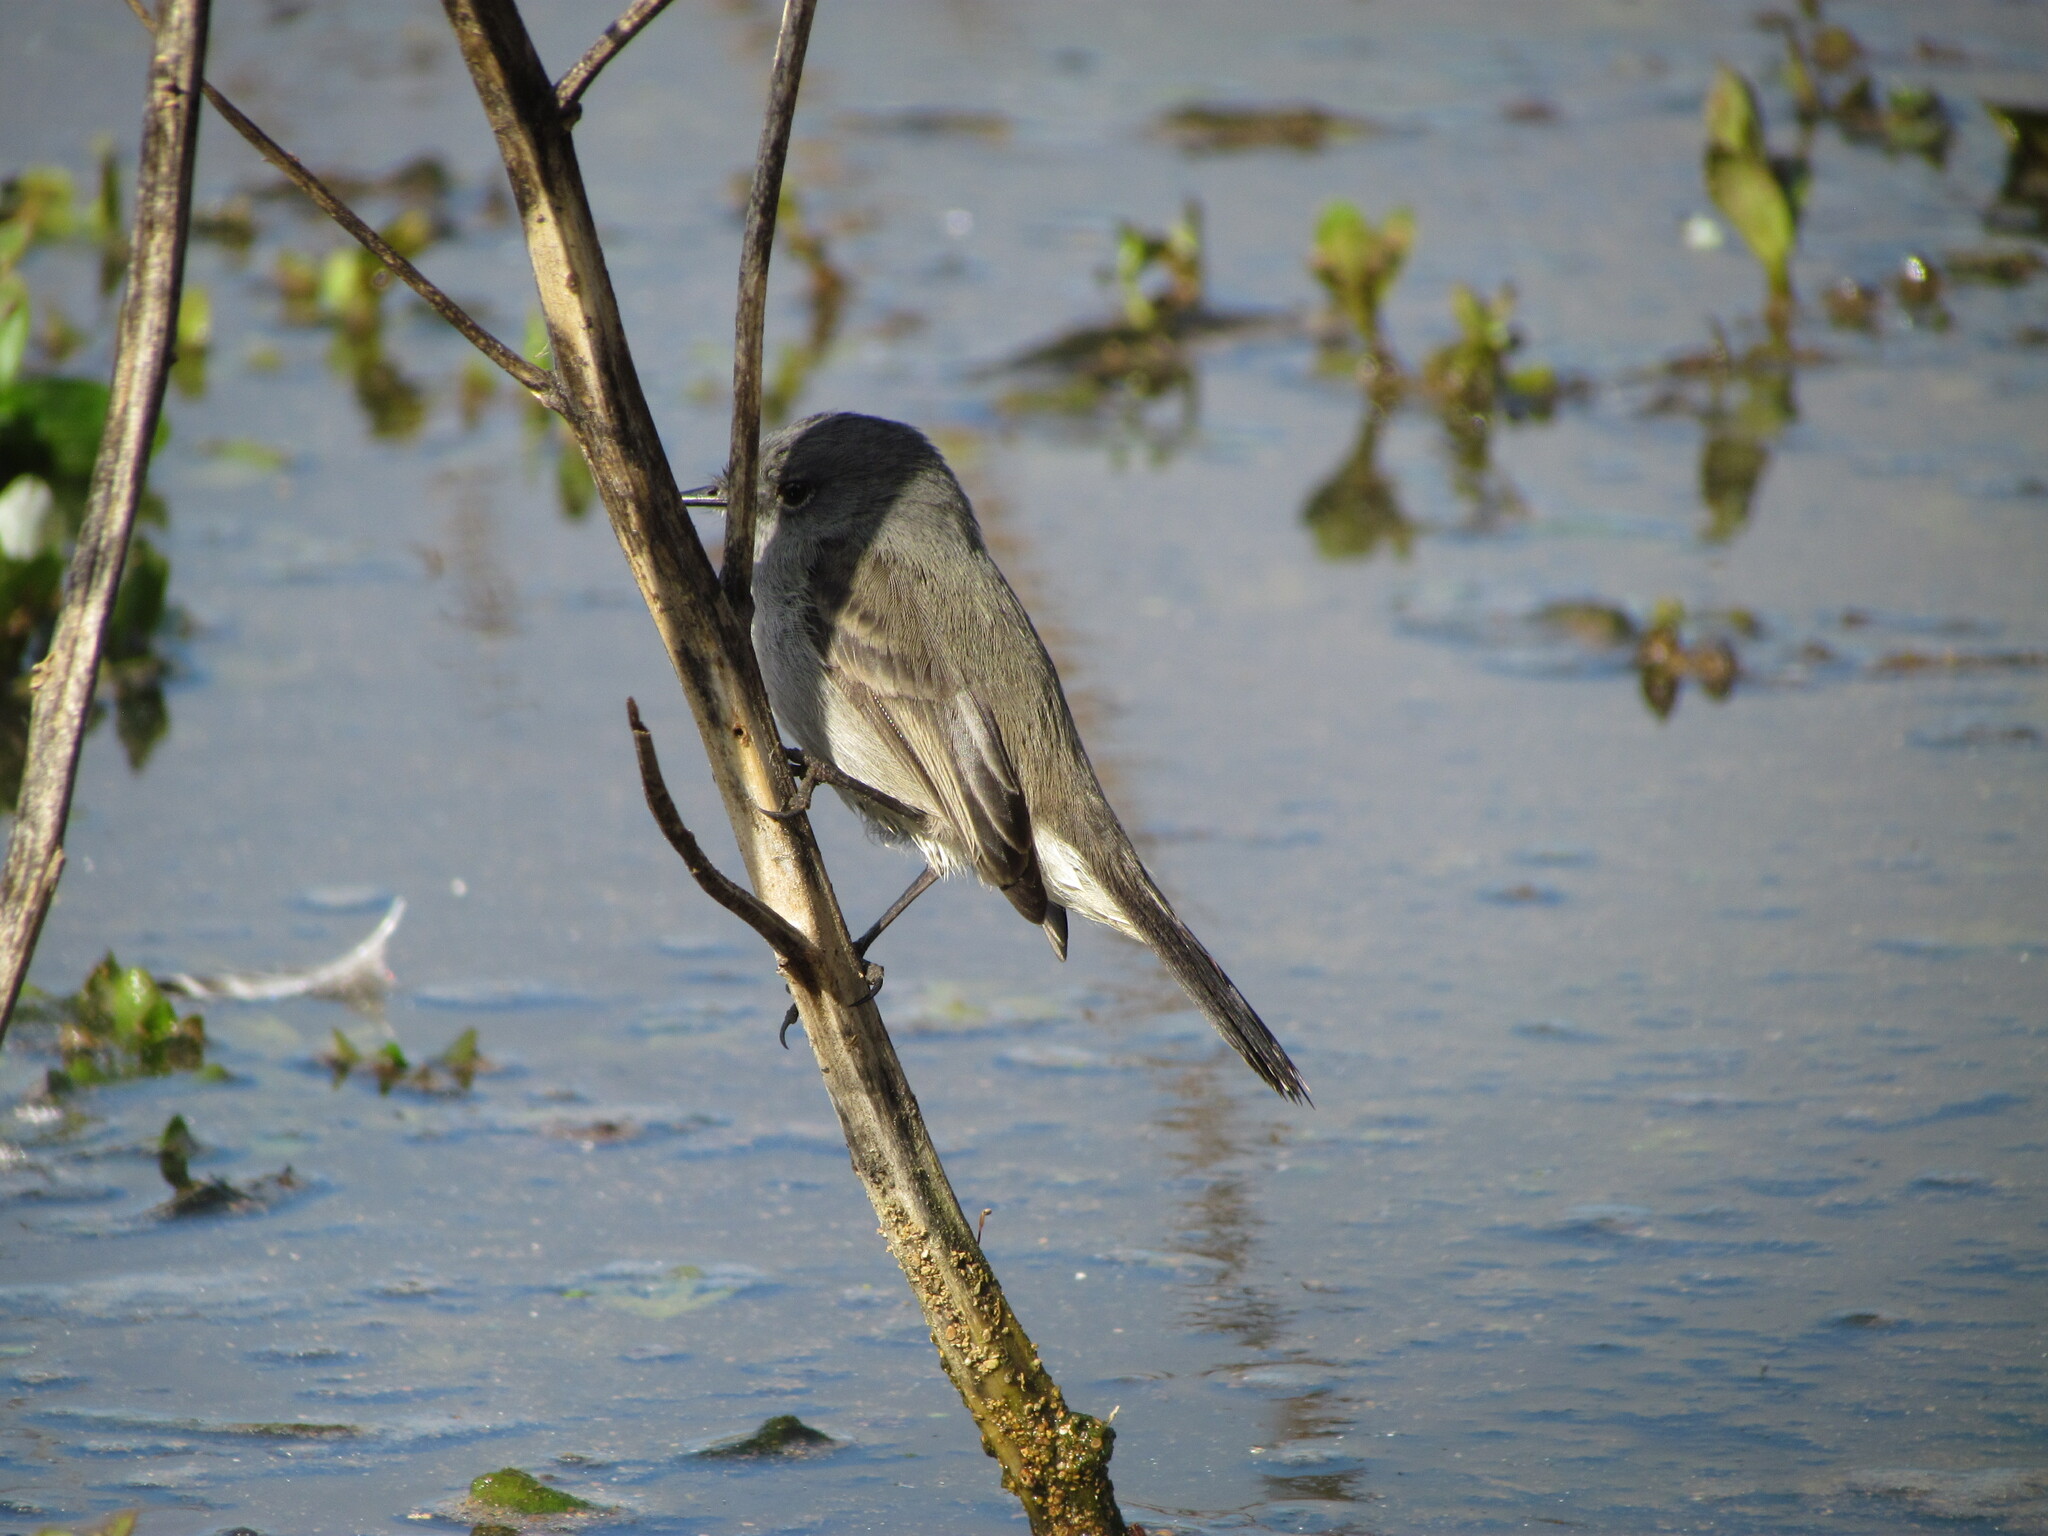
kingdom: Animalia
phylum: Chordata
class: Aves
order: Passeriformes
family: Tyrannidae
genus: Serpophaga
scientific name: Serpophaga nigricans
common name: Sooty tyrannulet
